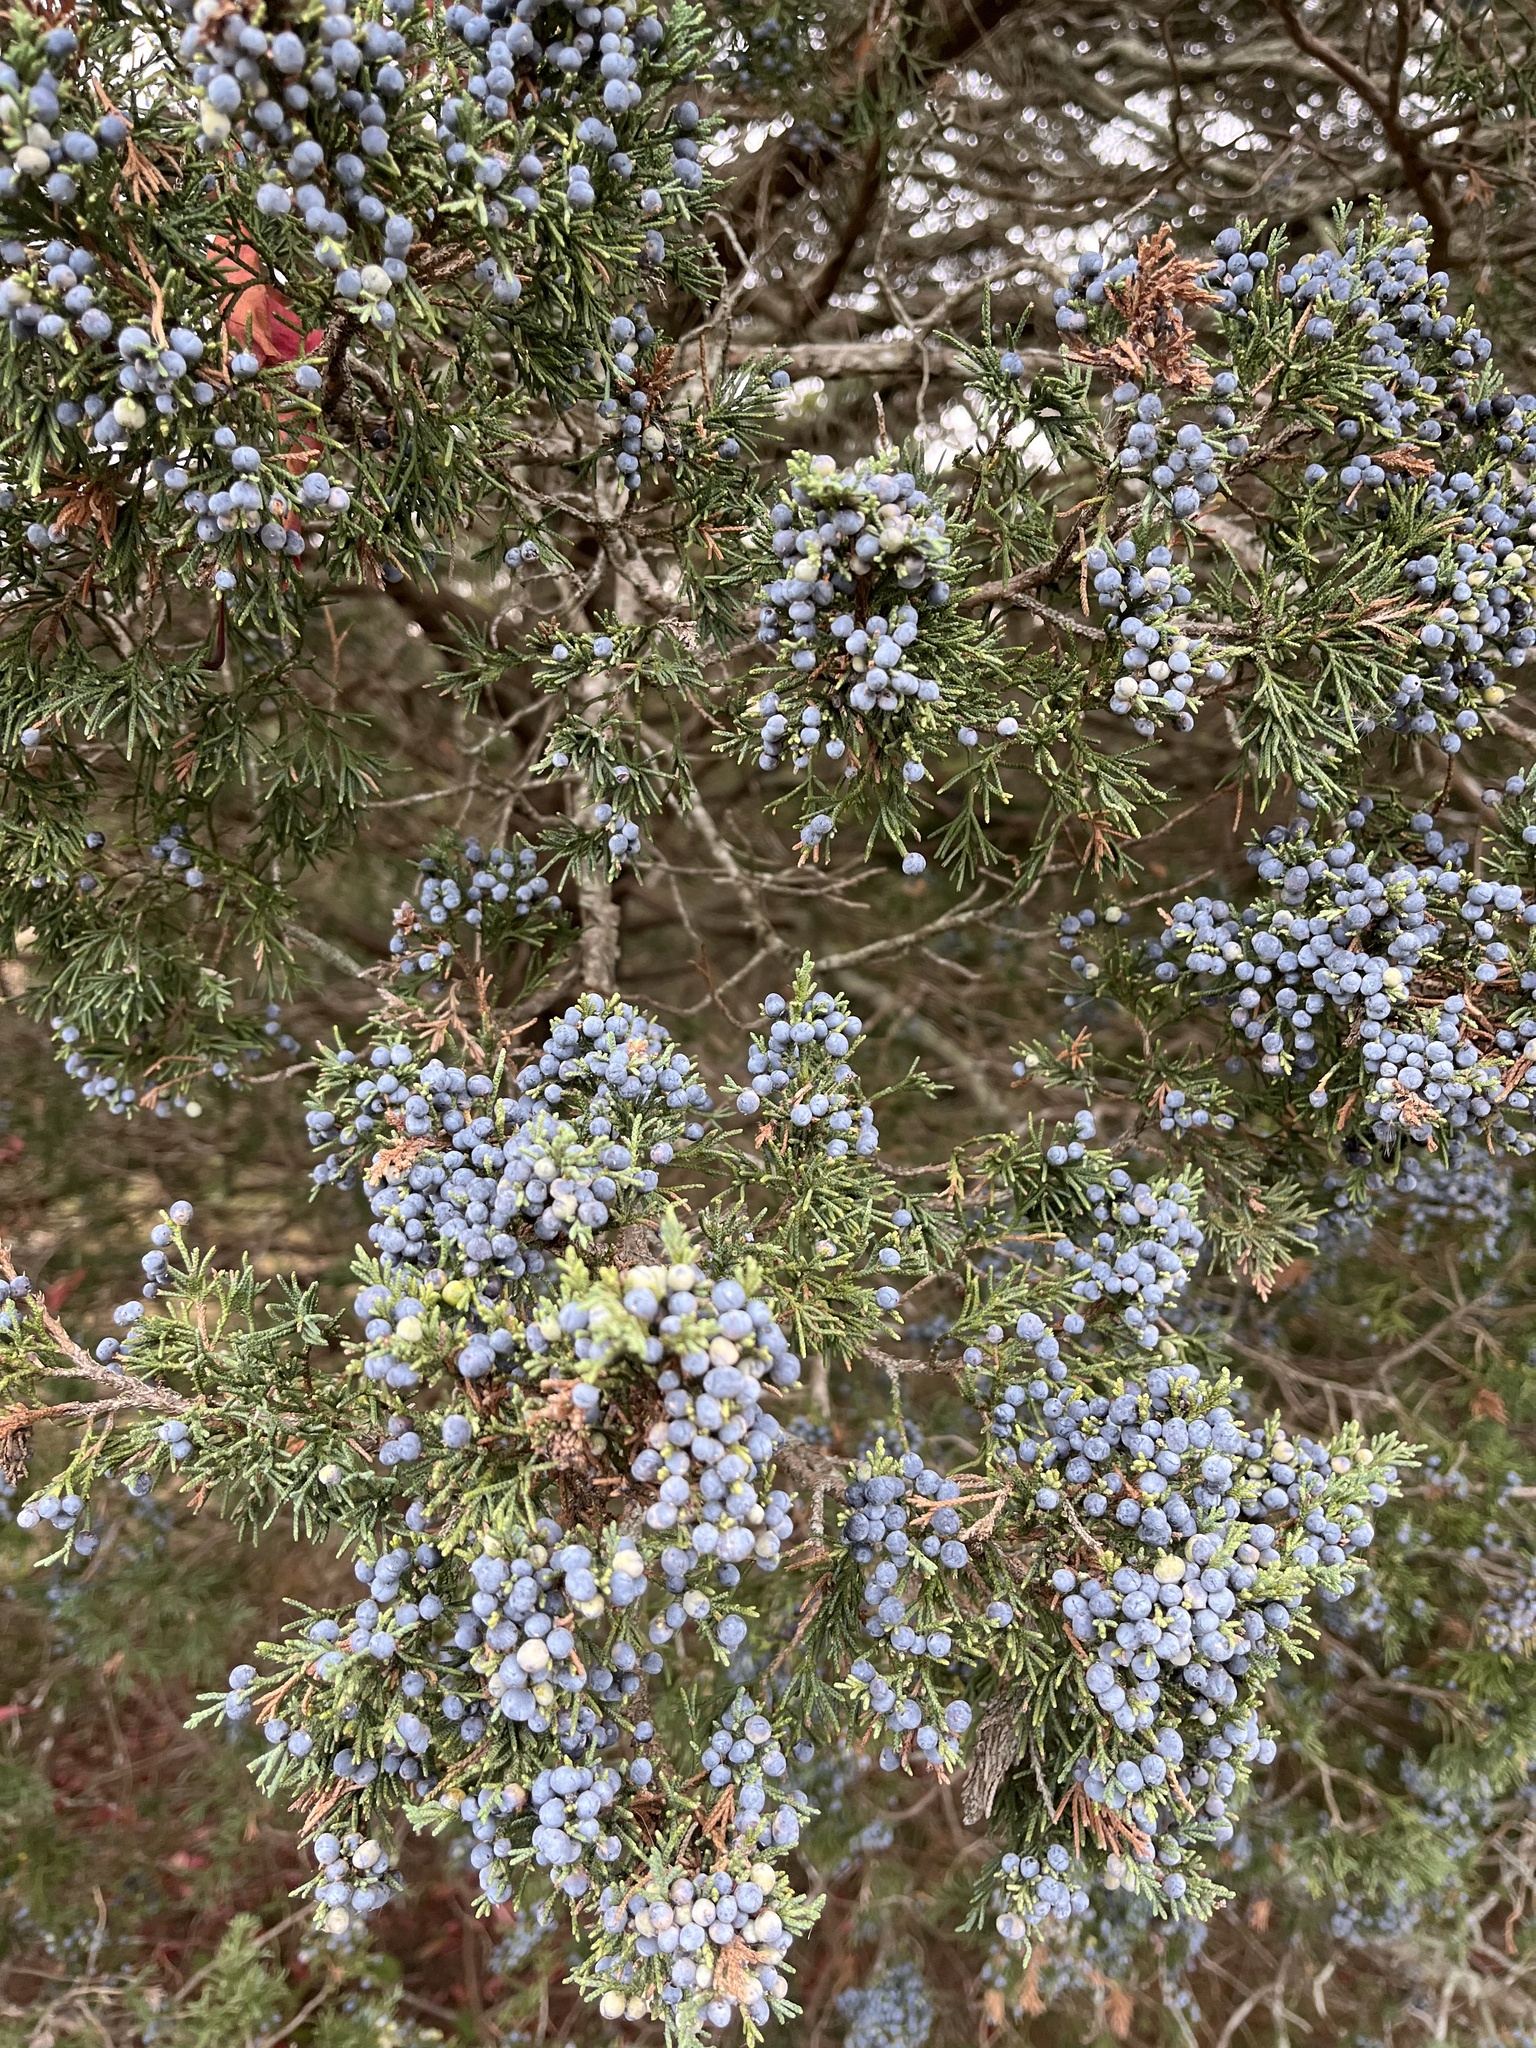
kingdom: Plantae
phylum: Tracheophyta
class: Pinopsida
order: Pinales
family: Cupressaceae
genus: Juniperus
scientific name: Juniperus virginiana
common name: Red juniper
